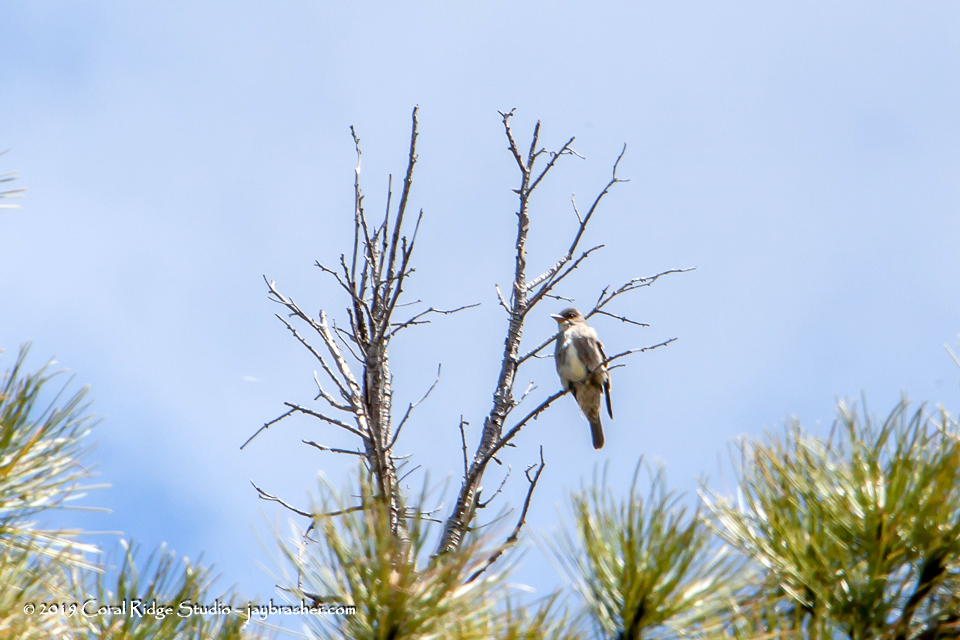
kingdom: Animalia
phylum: Chordata
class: Aves
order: Passeriformes
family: Tyrannidae
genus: Contopus
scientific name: Contopus cooperi
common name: Olive-sided flycatcher
